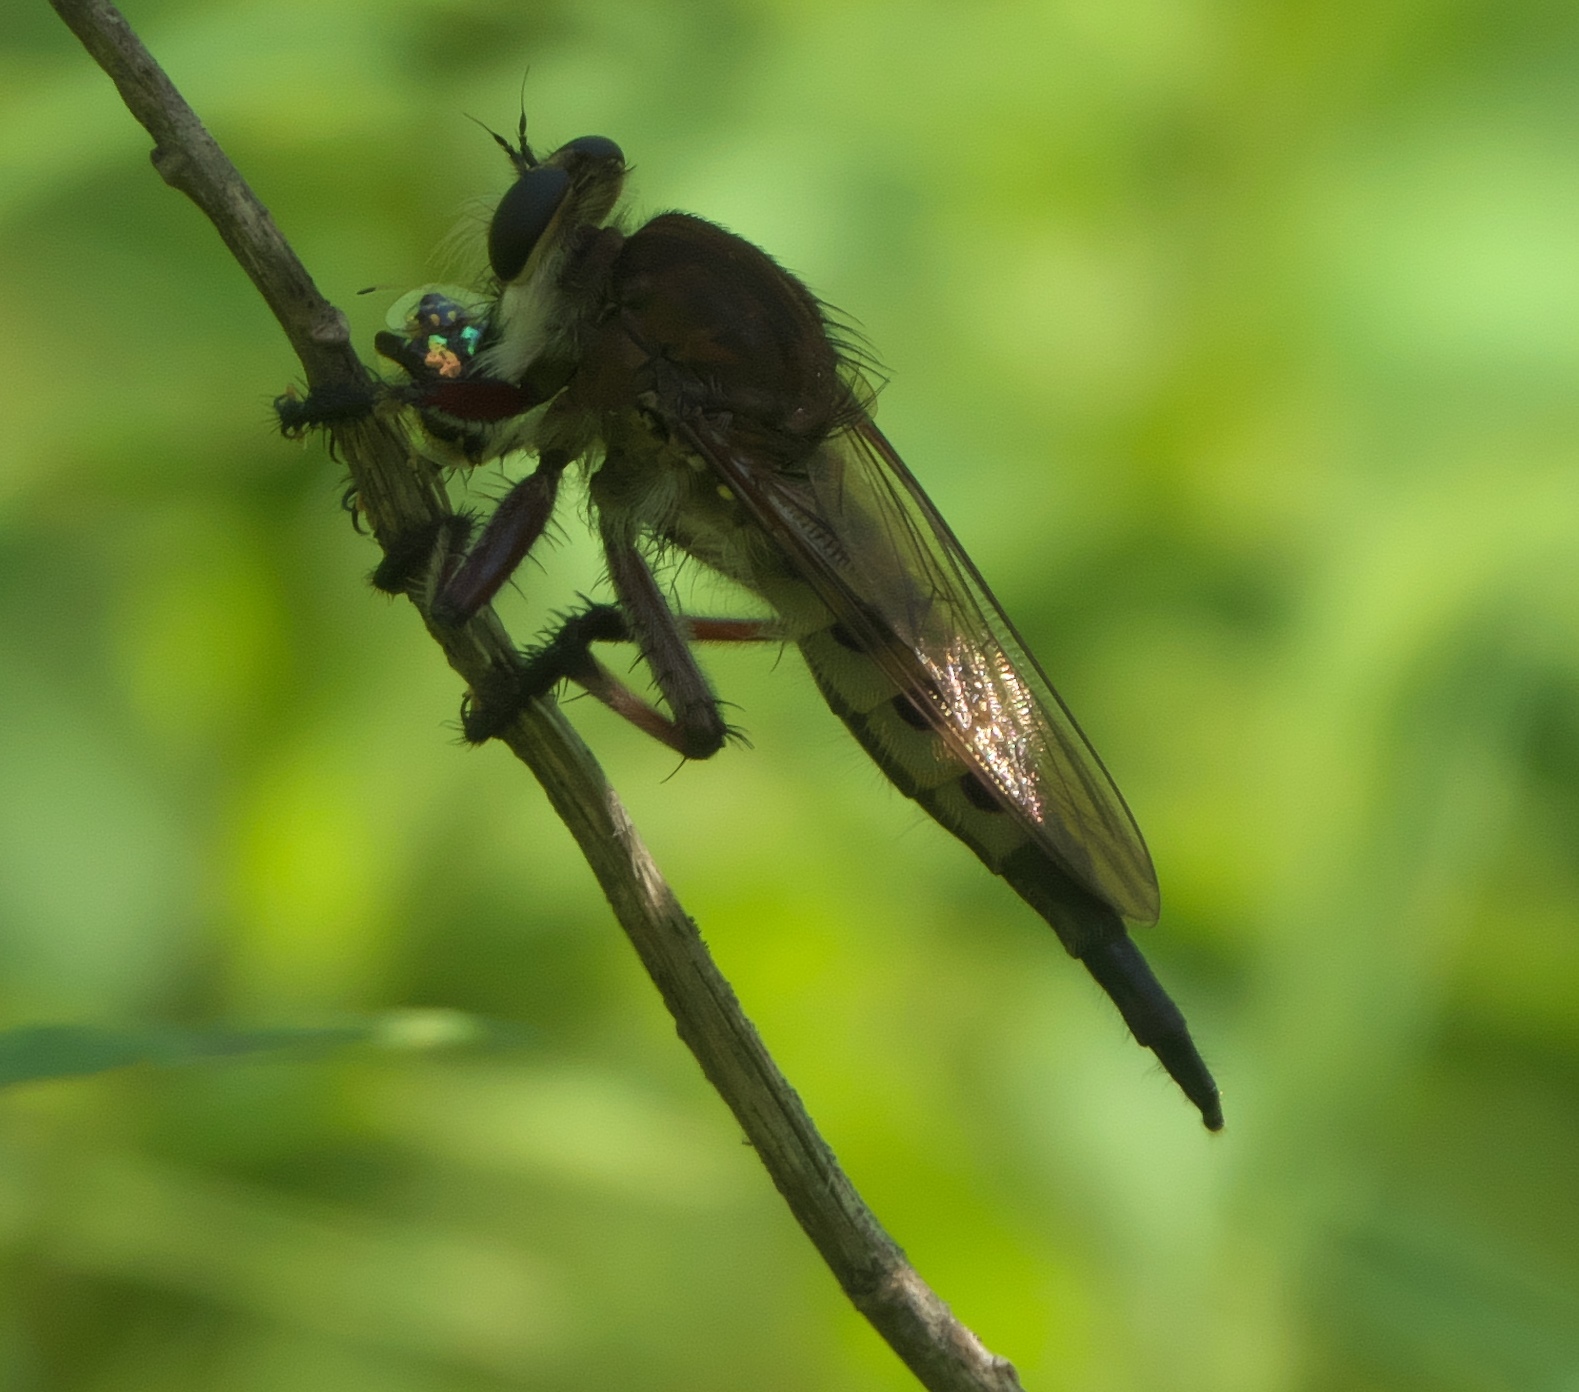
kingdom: Animalia
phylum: Arthropoda
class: Insecta
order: Diptera
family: Asilidae
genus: Promachus
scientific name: Promachus hinei
